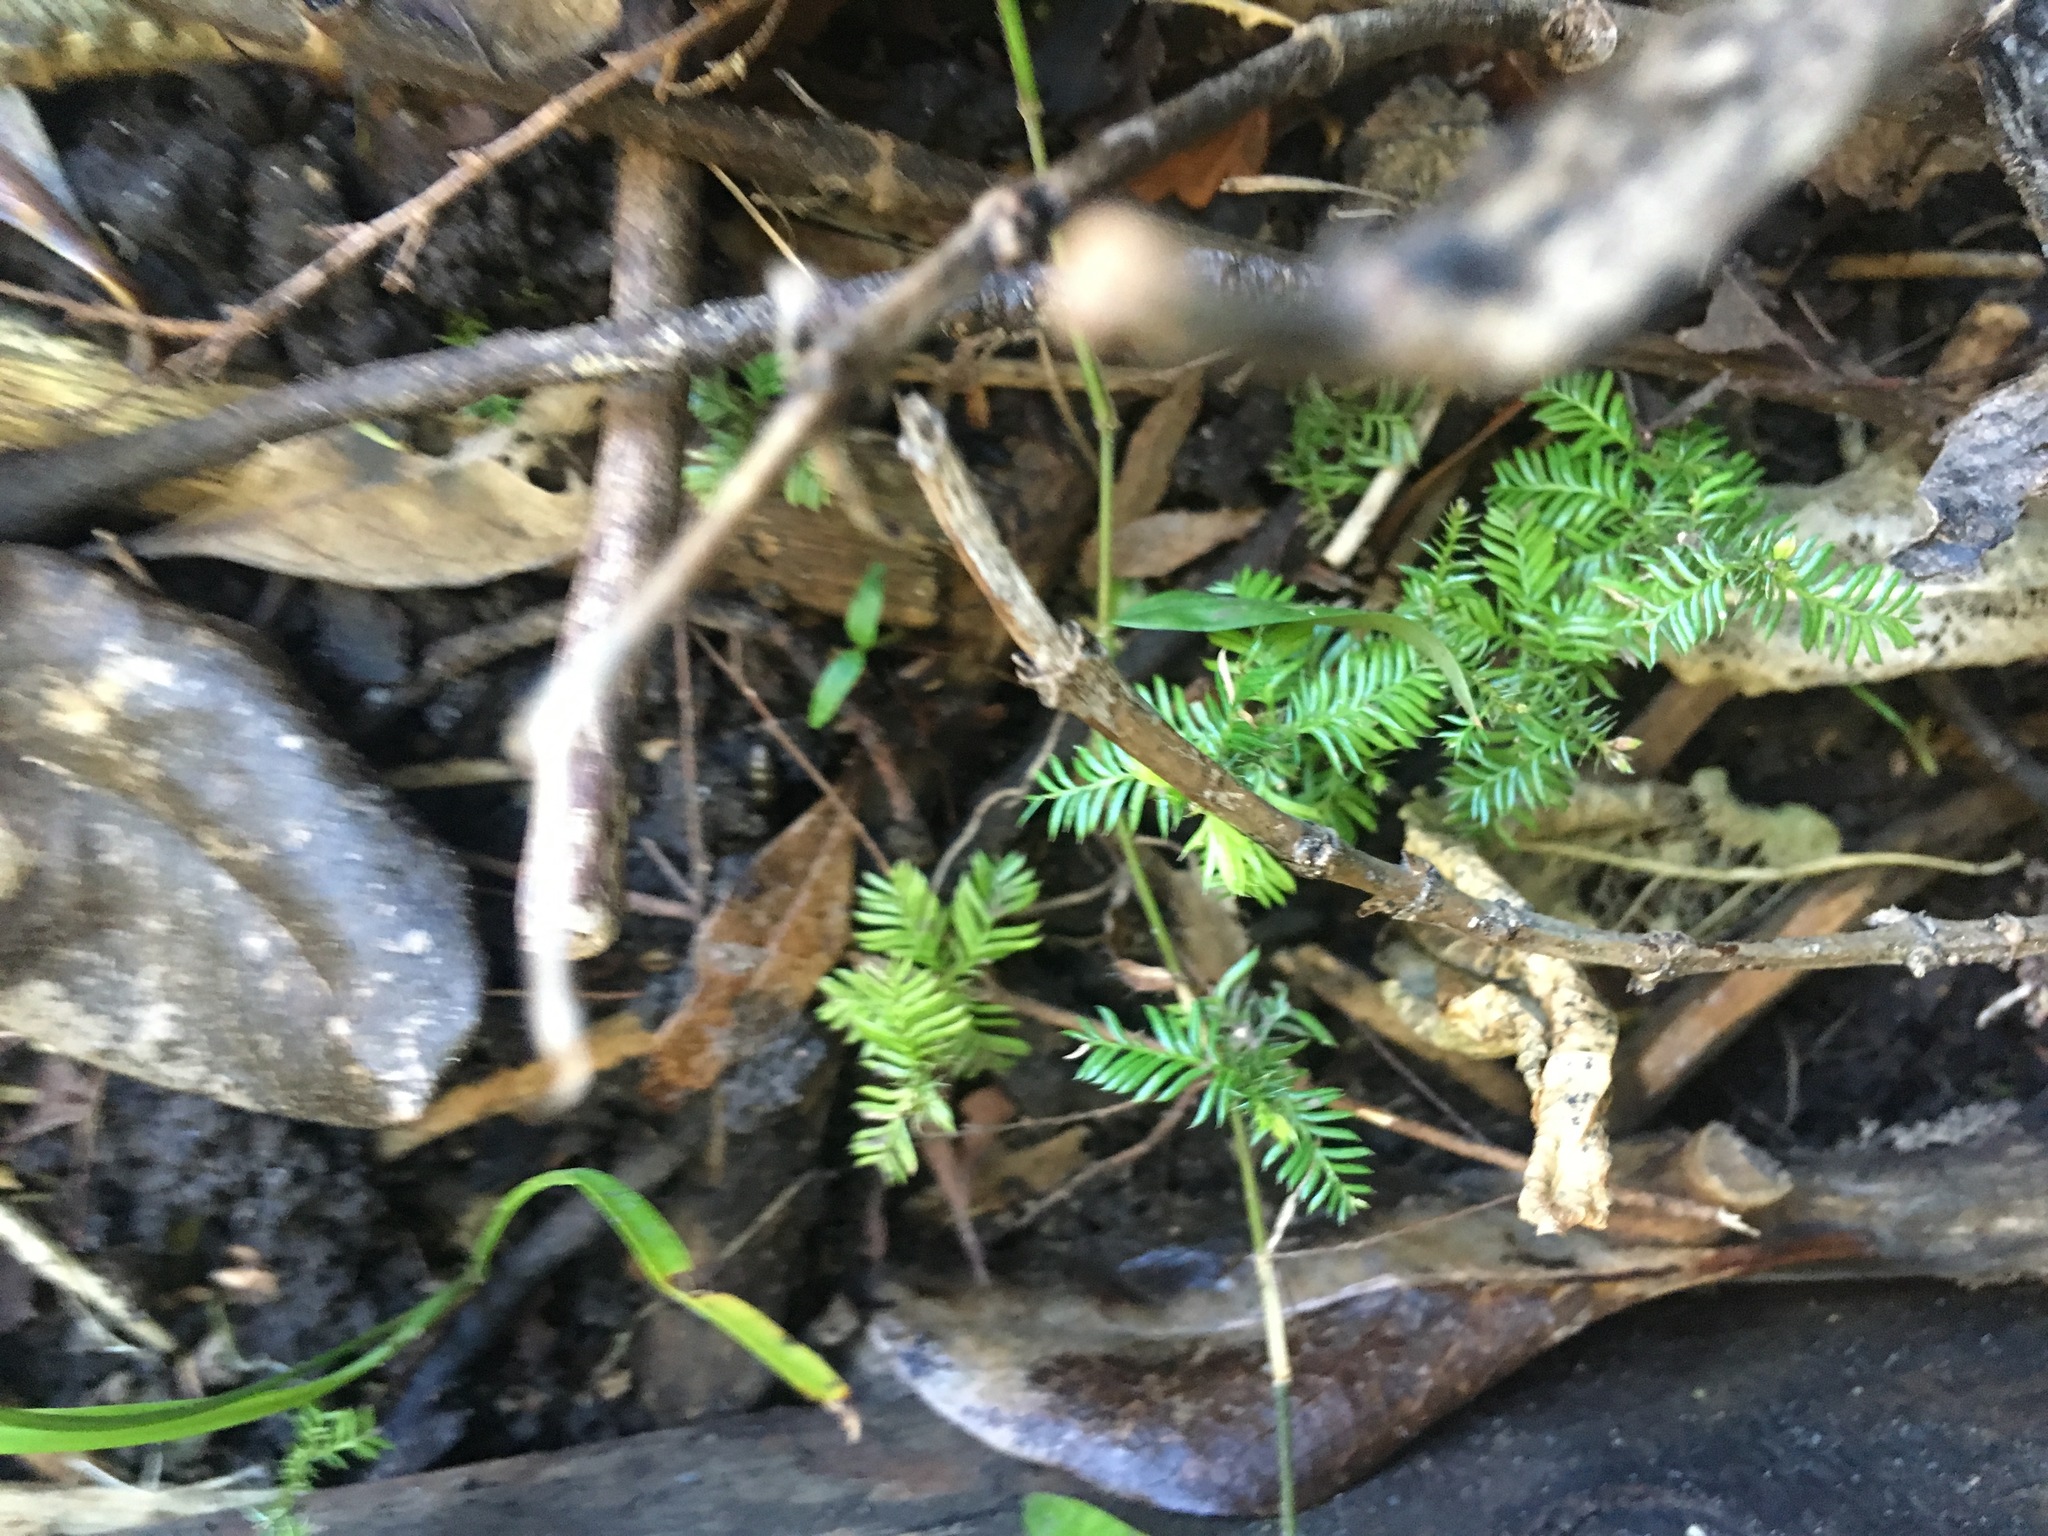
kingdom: Plantae
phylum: Tracheophyta
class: Pinopsida
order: Pinales
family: Podocarpaceae
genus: Dacrycarpus
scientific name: Dacrycarpus dacrydioides
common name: White pine
